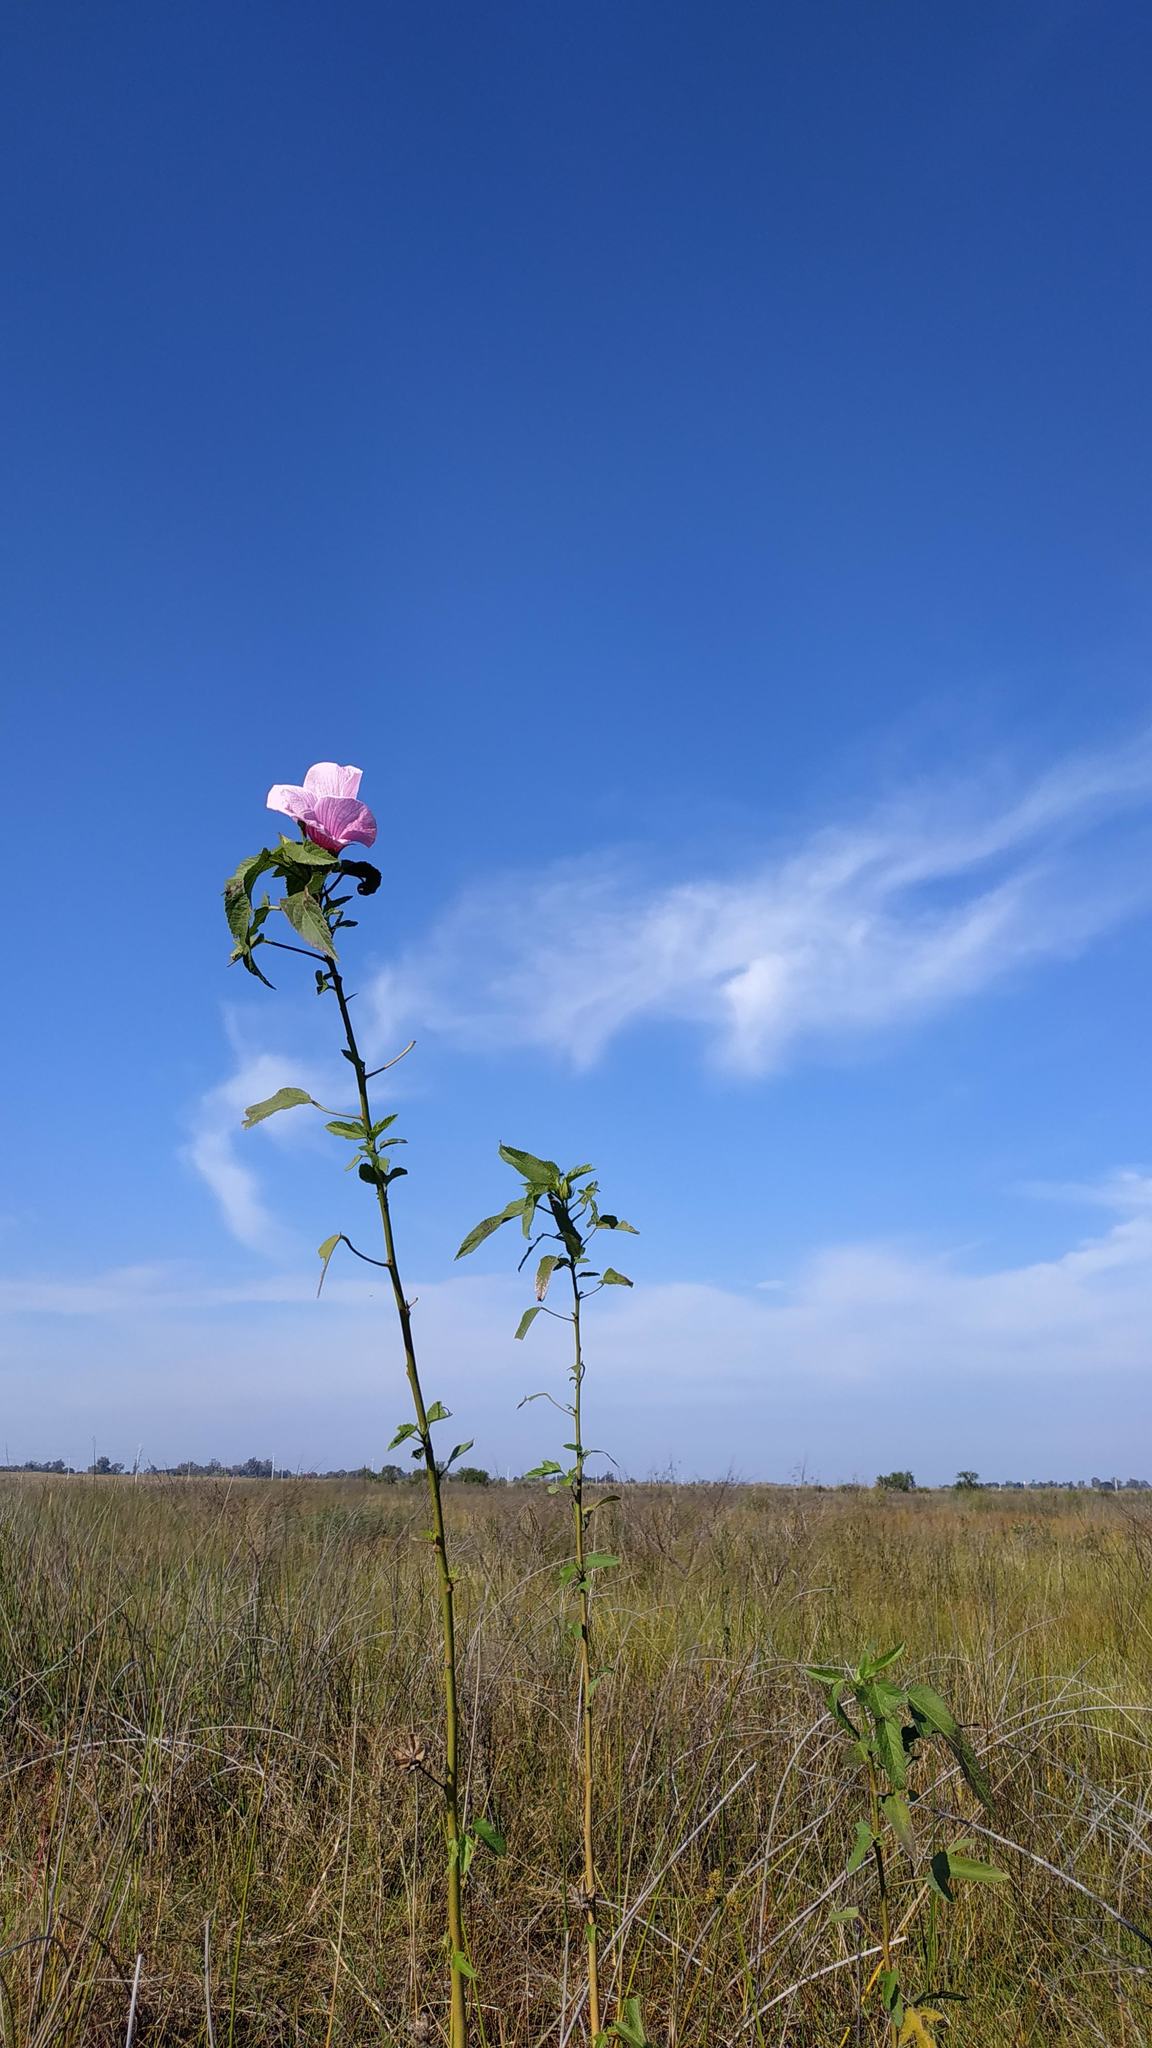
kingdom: Plantae
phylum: Tracheophyta
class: Magnoliopsida
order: Malvales
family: Malvaceae
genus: Hibiscus
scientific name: Hibiscus striatus
